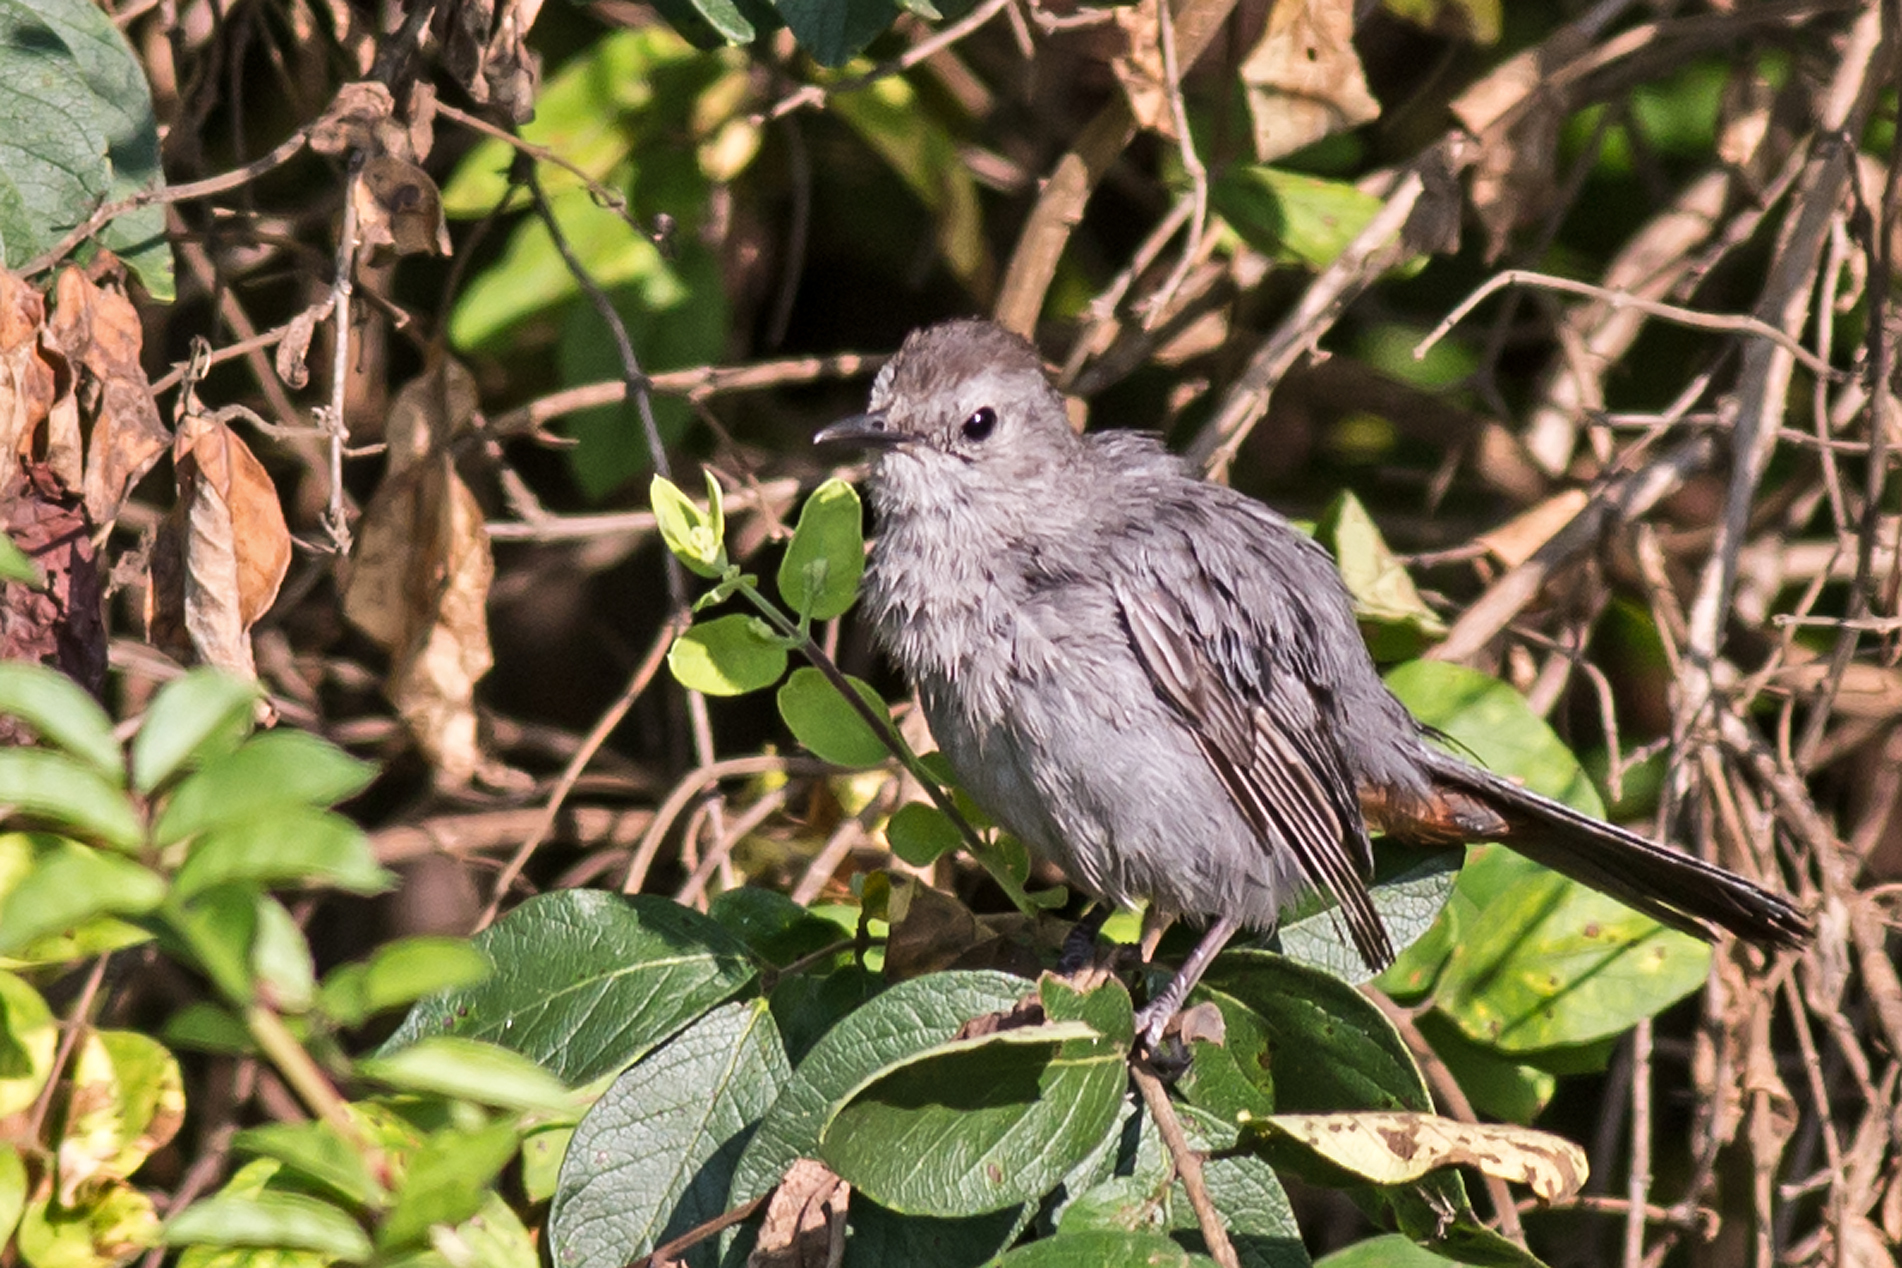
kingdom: Animalia
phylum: Chordata
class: Aves
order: Passeriformes
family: Mimidae
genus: Dumetella
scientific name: Dumetella carolinensis
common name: Gray catbird
